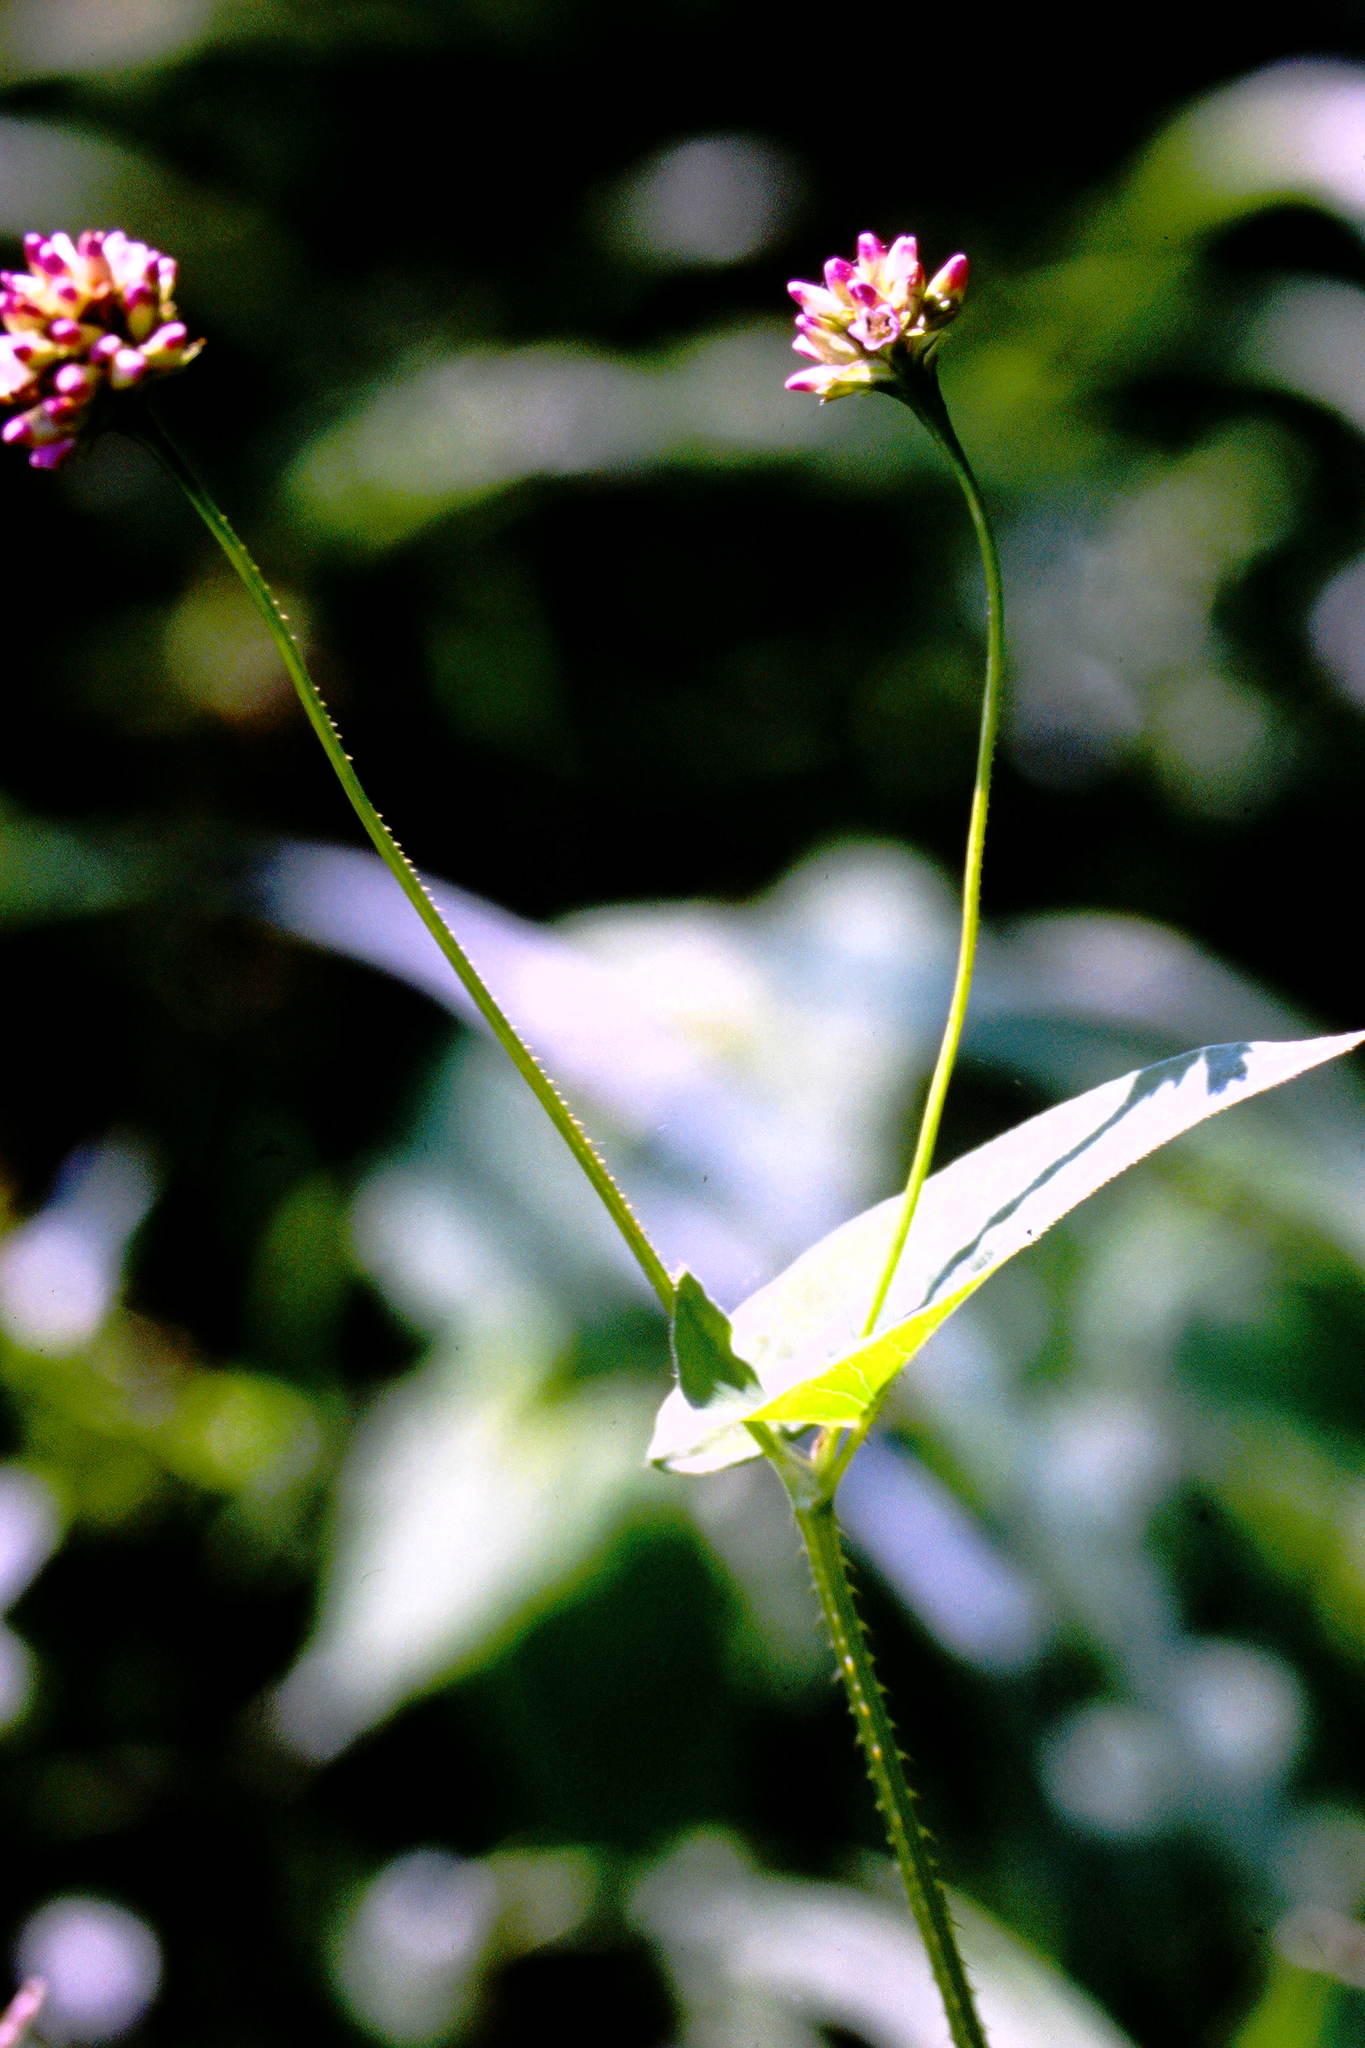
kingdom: Plantae
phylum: Tracheophyta
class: Magnoliopsida
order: Caryophyllales
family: Polygonaceae
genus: Persicaria
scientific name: Persicaria sagittata
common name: American tearthumb
